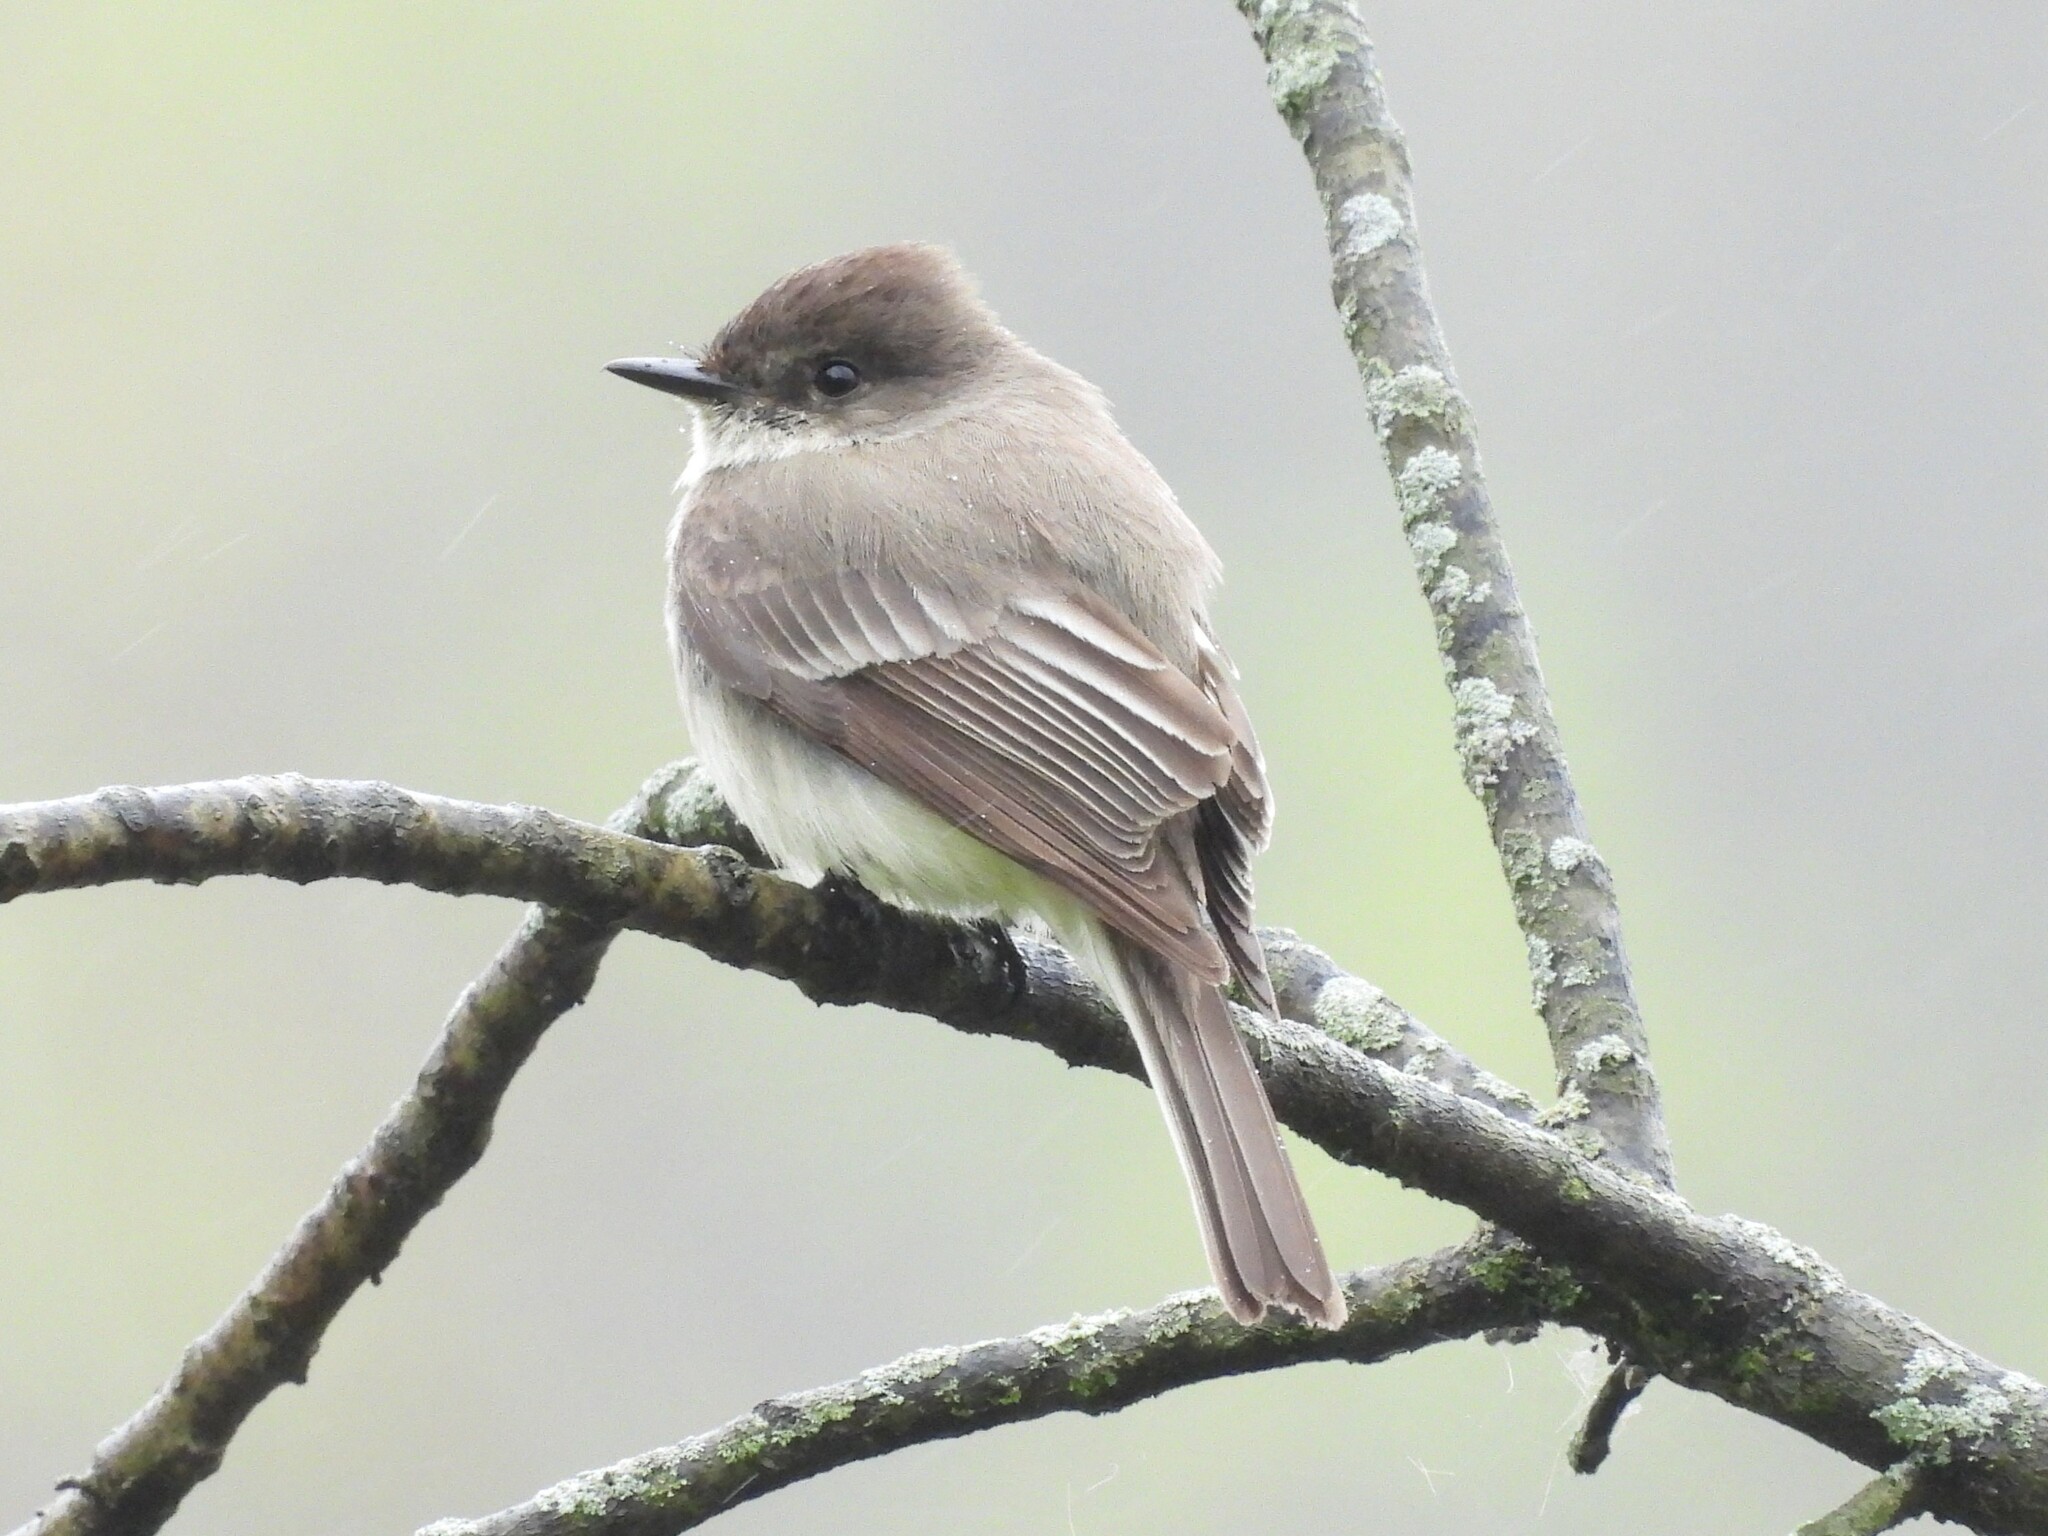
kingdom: Animalia
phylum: Chordata
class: Aves
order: Passeriformes
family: Tyrannidae
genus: Sayornis
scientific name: Sayornis phoebe
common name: Eastern phoebe
